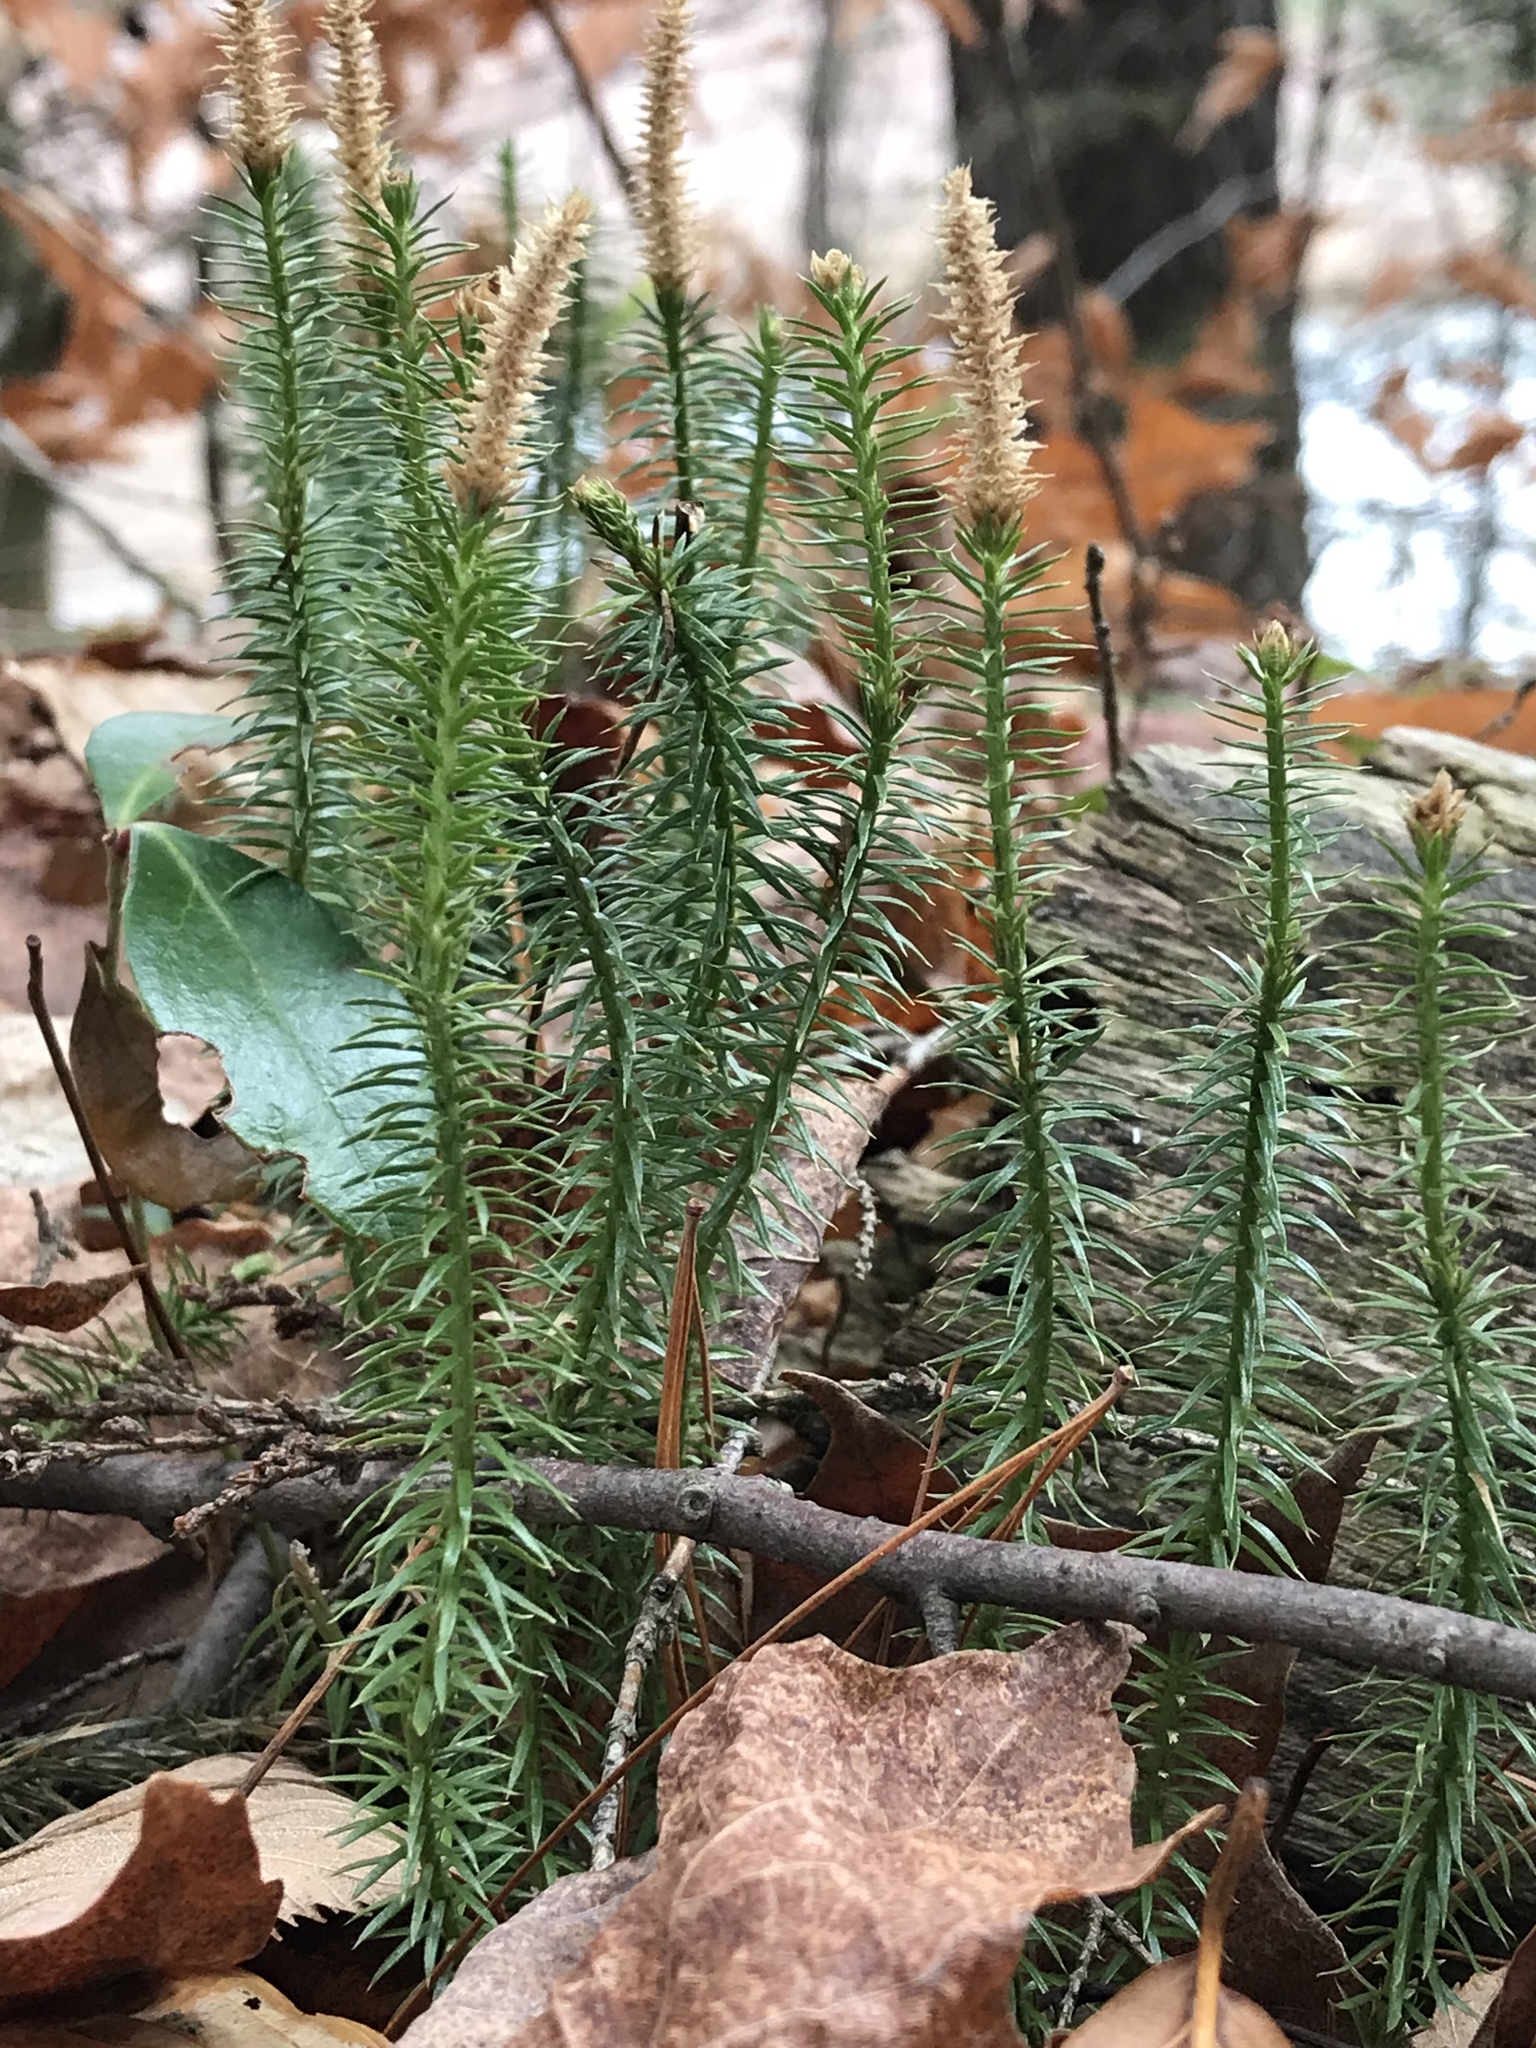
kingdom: Plantae
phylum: Tracheophyta
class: Lycopodiopsida
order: Lycopodiales
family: Lycopodiaceae
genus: Spinulum
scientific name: Spinulum annotinum
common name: Interrupted club-moss
